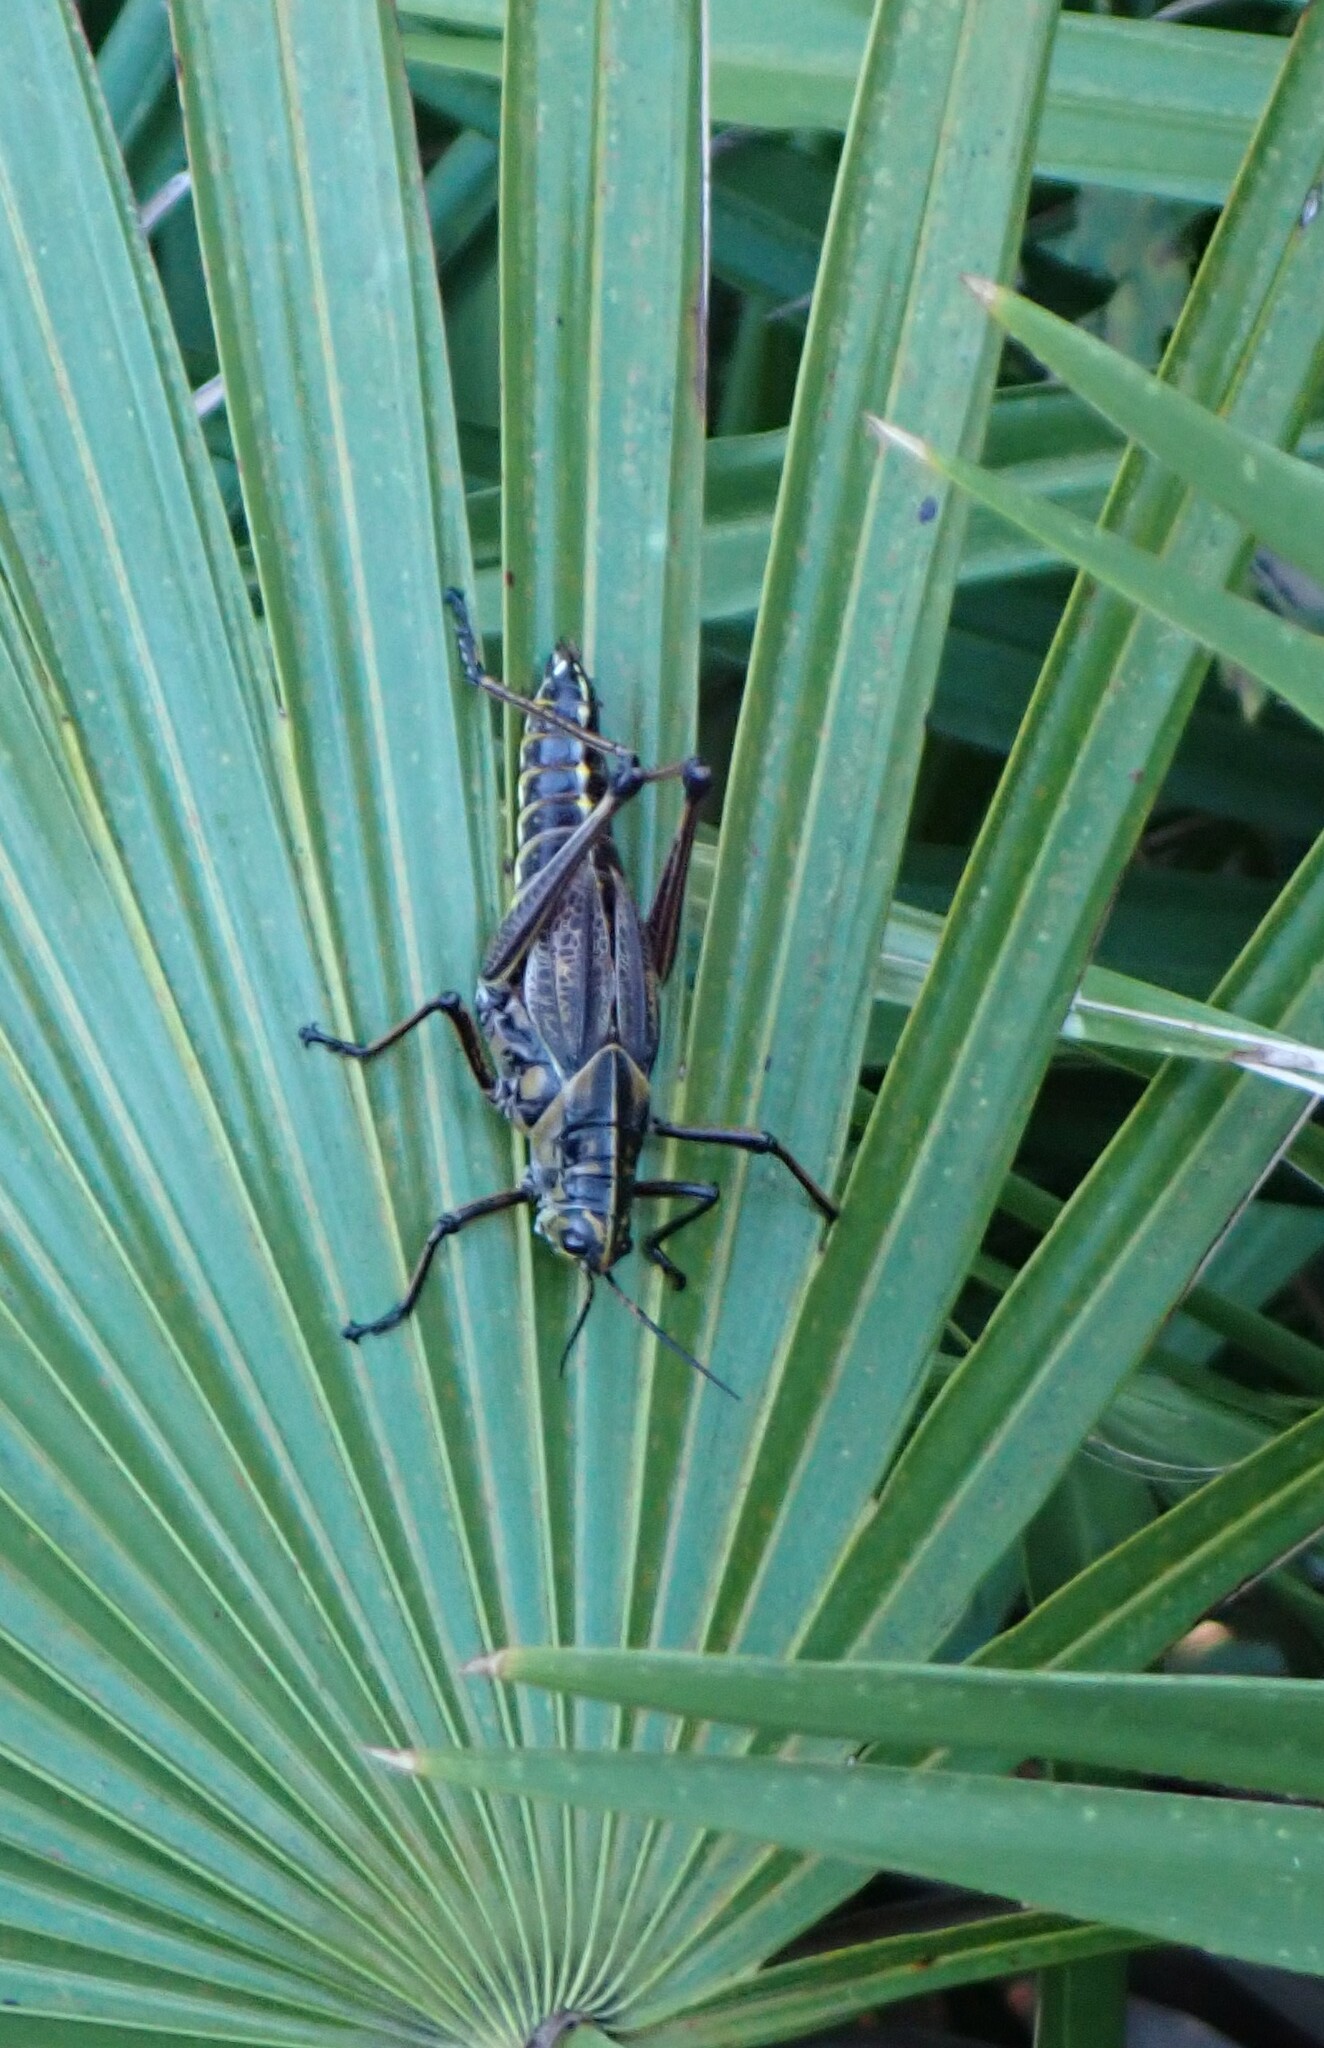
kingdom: Animalia
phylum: Arthropoda
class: Insecta
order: Orthoptera
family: Romaleidae
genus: Romalea
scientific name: Romalea microptera
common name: Eastern lubber grasshopper
